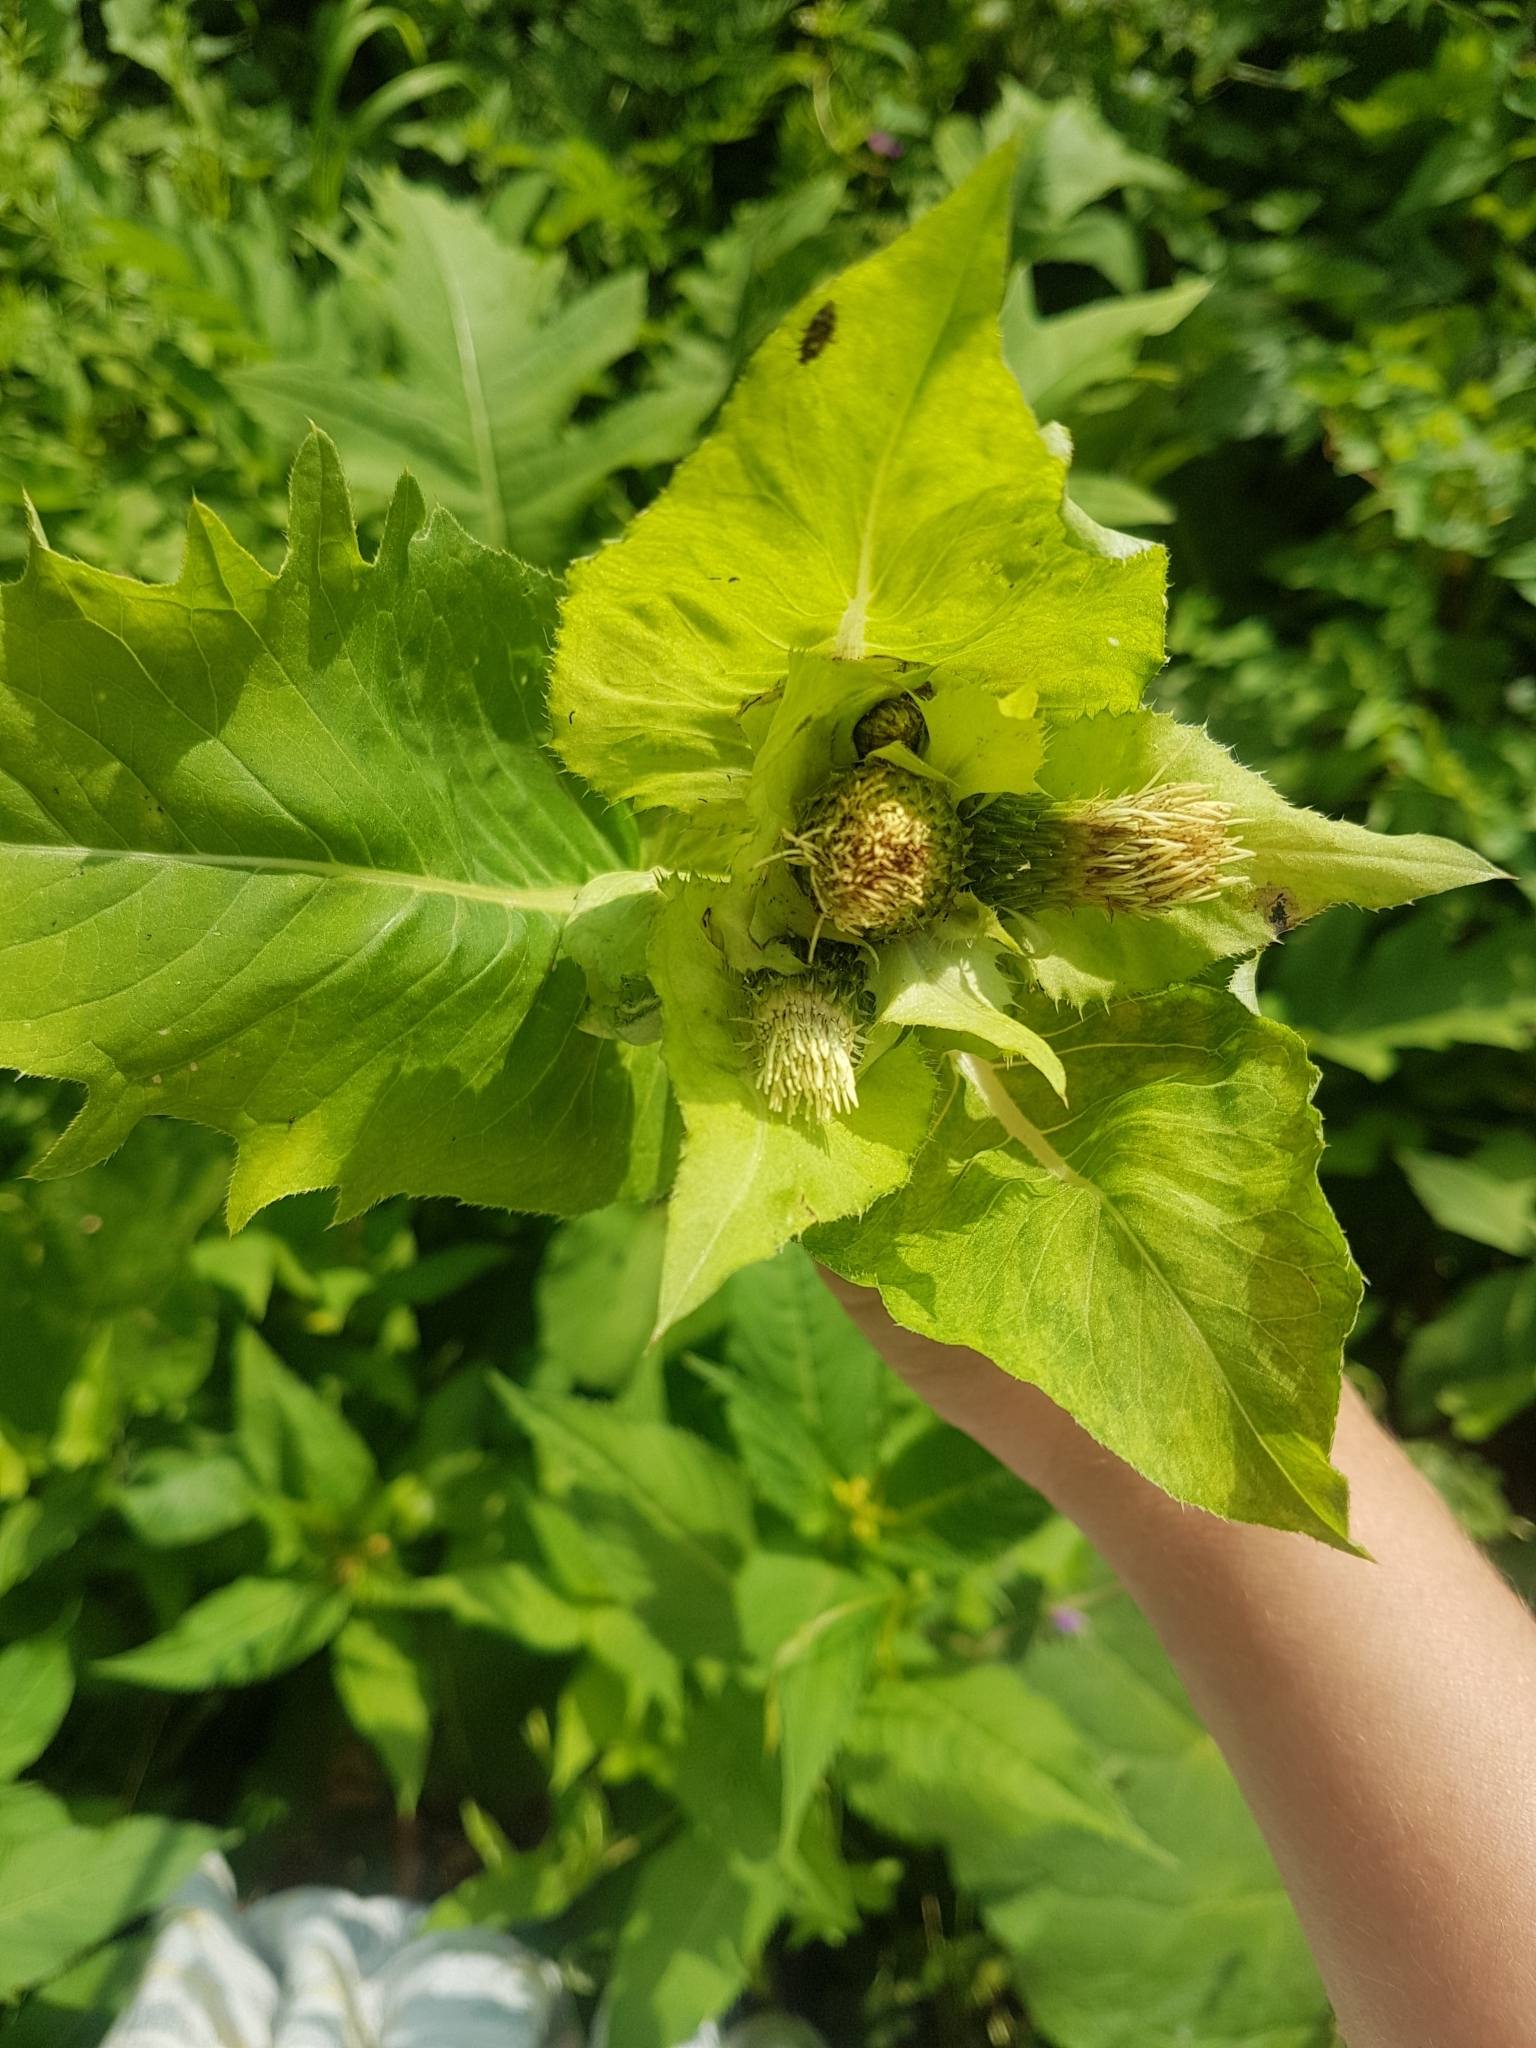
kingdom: Plantae
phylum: Tracheophyta
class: Magnoliopsida
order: Asterales
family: Asteraceae
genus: Cirsium
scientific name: Cirsium oleraceum
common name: Cabbage thistle
